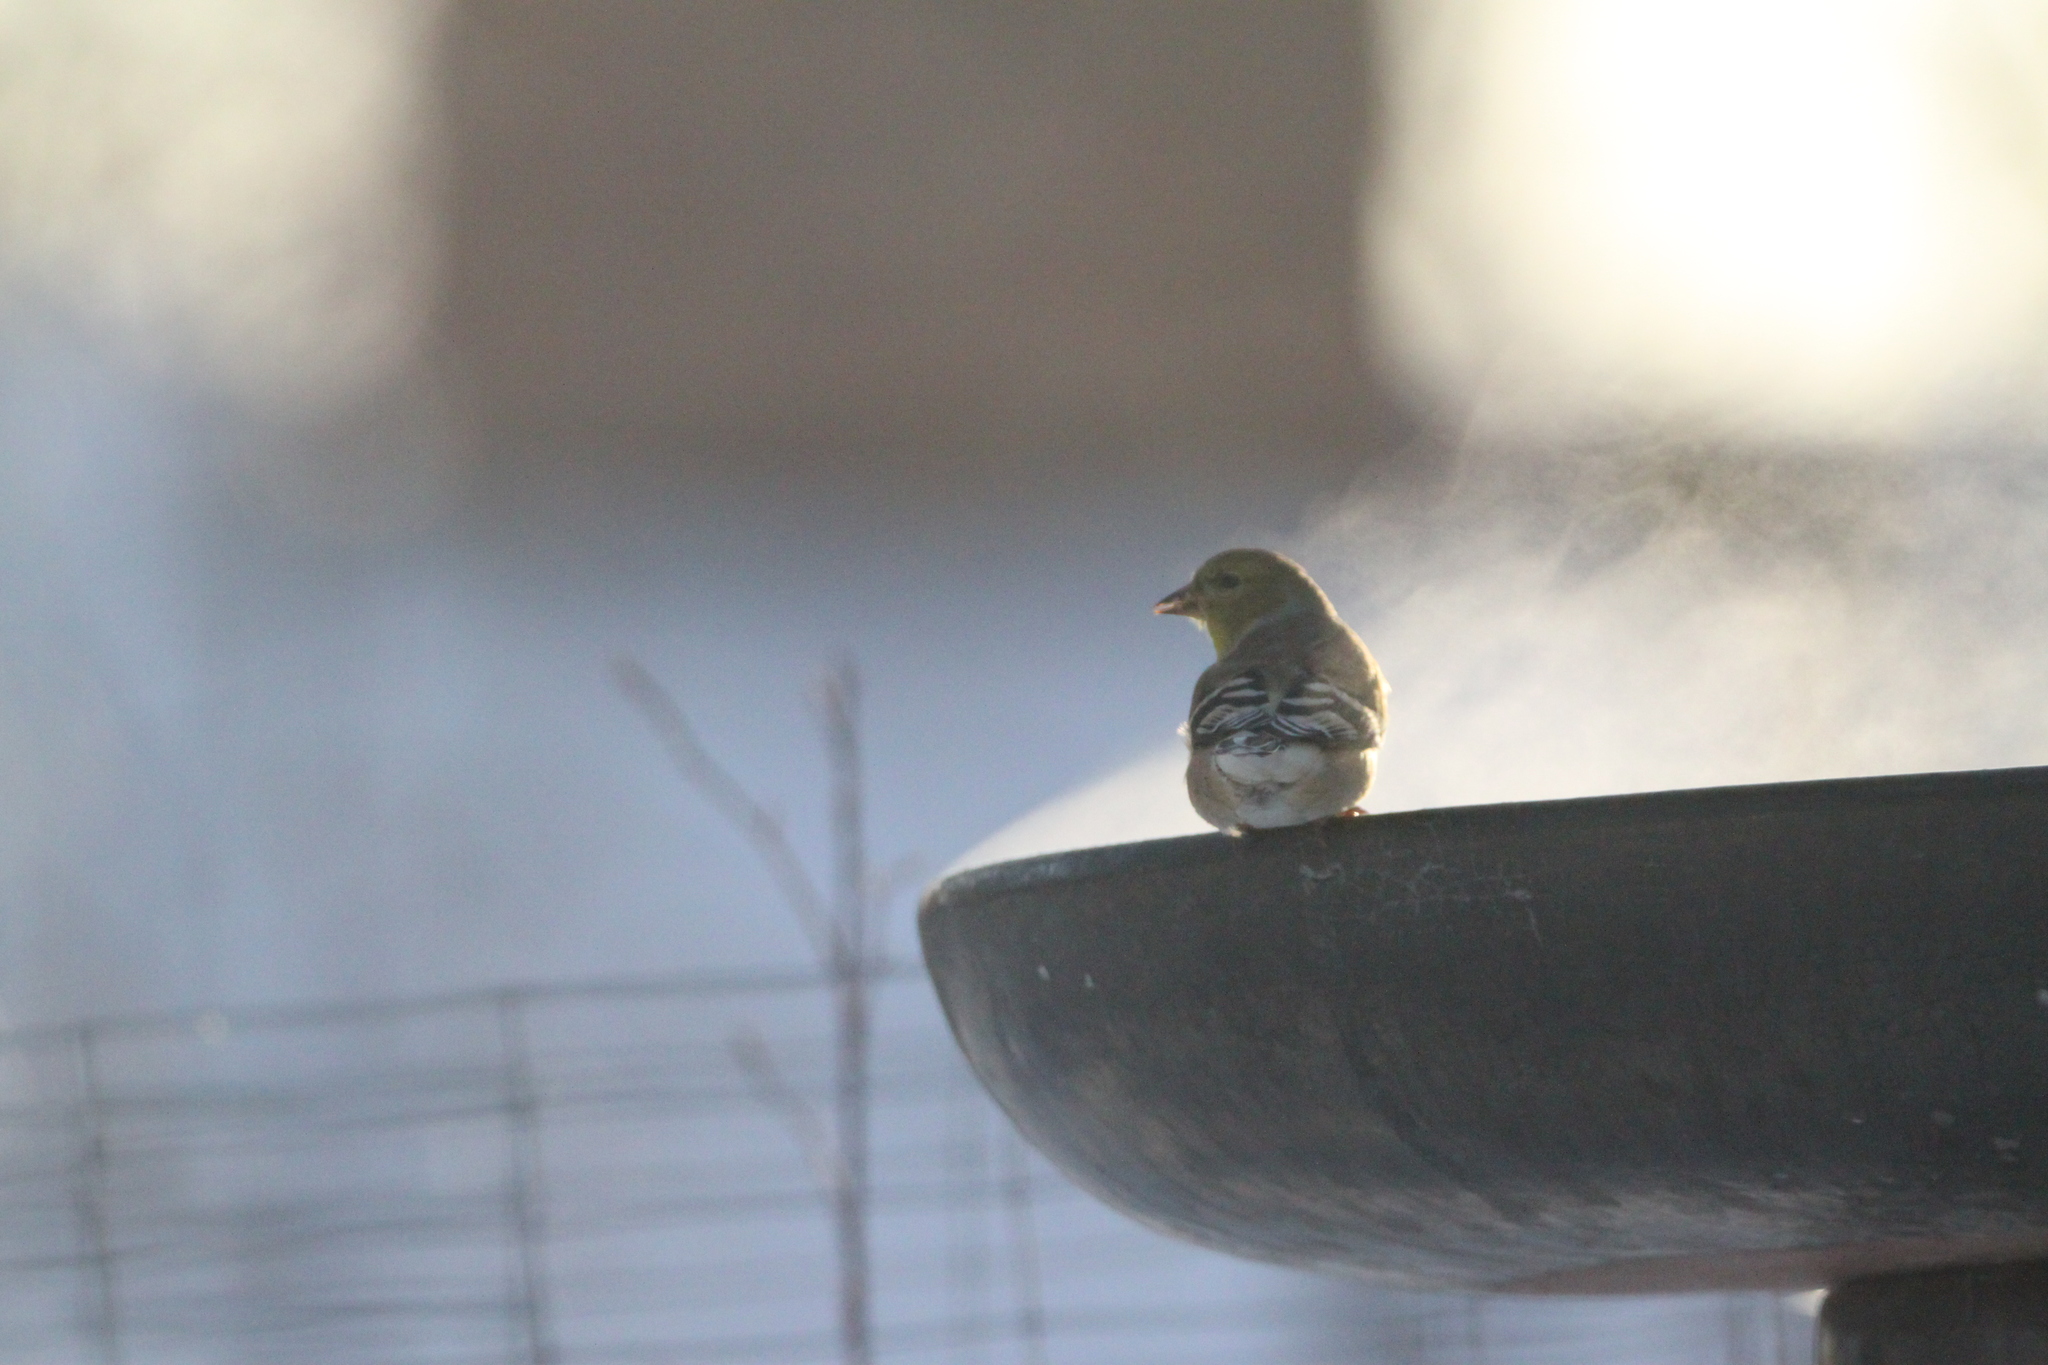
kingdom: Animalia
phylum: Chordata
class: Aves
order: Passeriformes
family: Fringillidae
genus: Spinus
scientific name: Spinus tristis
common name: American goldfinch
